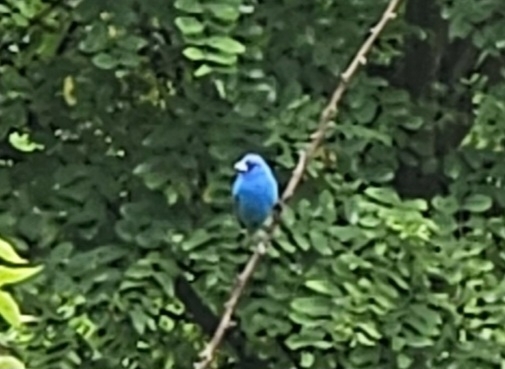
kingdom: Animalia
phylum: Chordata
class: Aves
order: Passeriformes
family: Cardinalidae
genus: Passerina
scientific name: Passerina cyanea
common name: Indigo bunting
